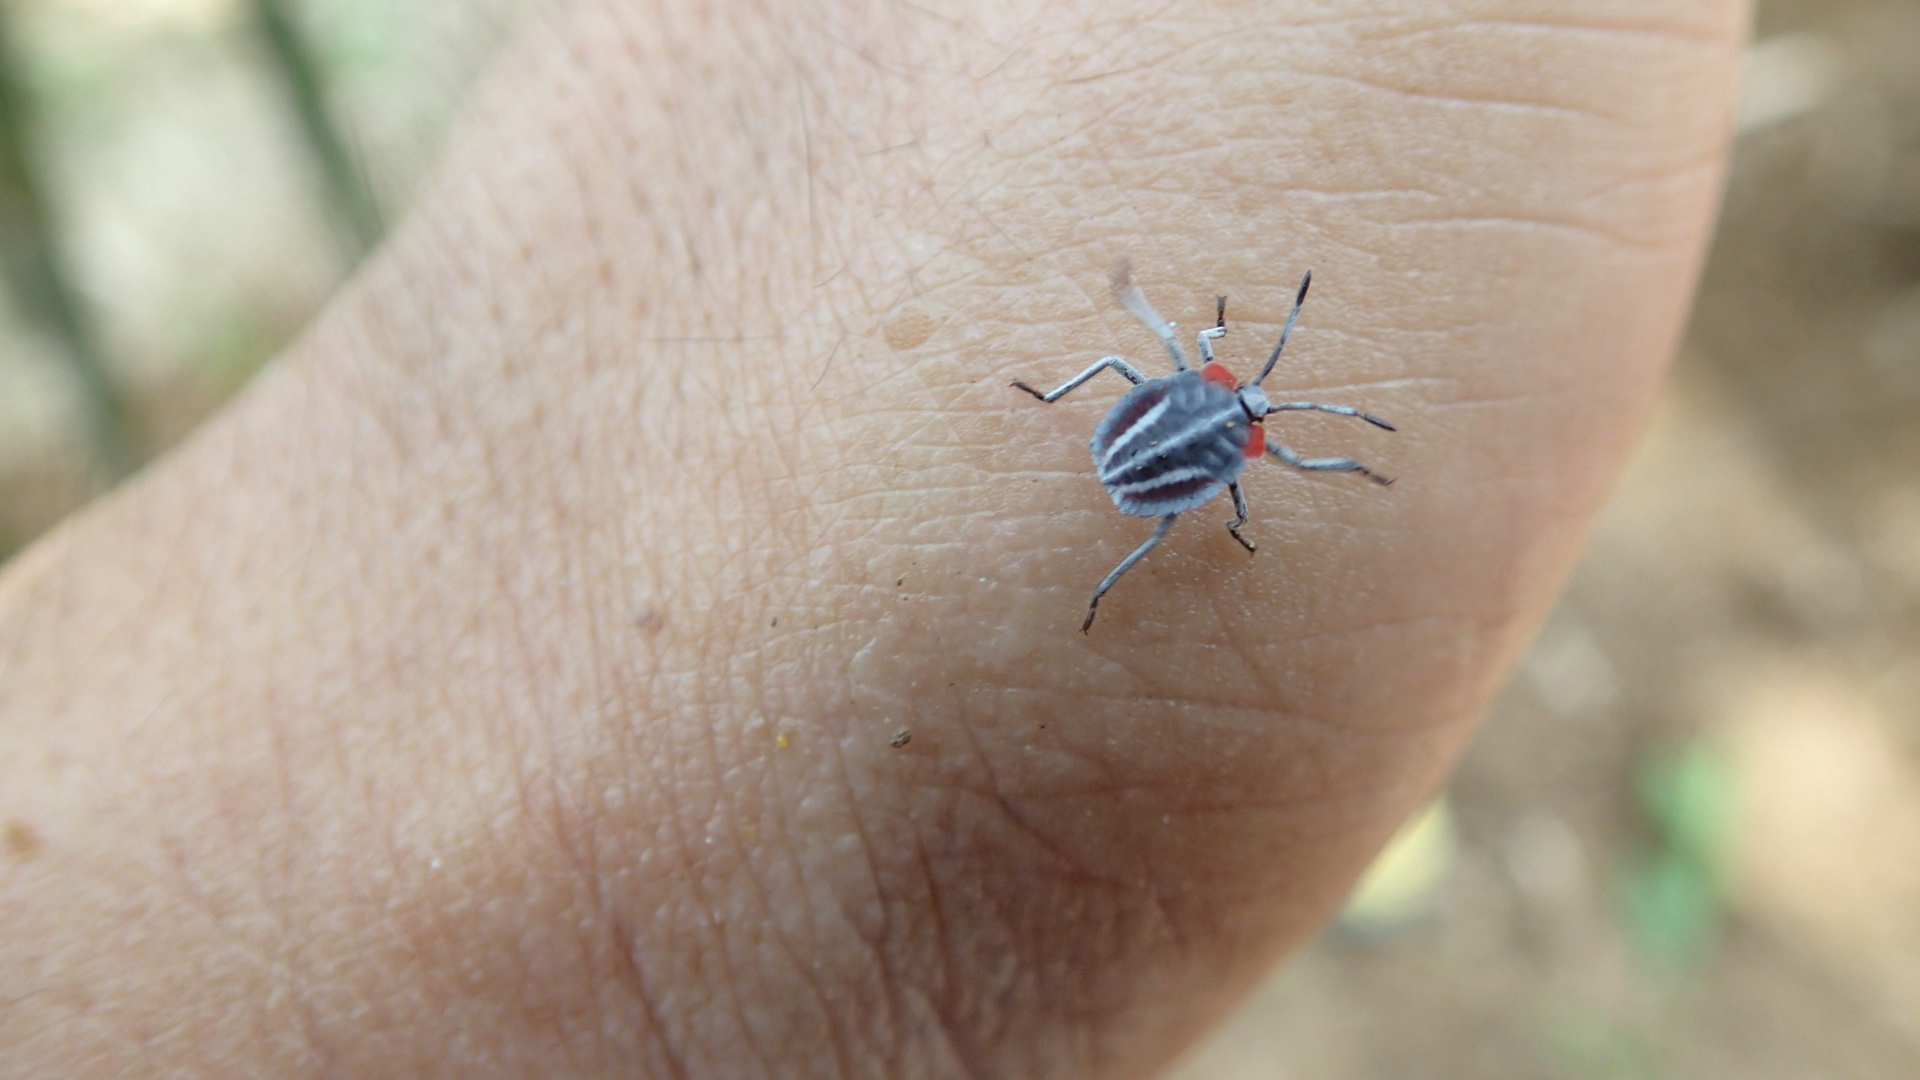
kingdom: Animalia
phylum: Arthropoda
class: Insecta
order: Hemiptera
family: Tessaratomidae
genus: Tessaratoma
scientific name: Tessaratoma papillosa
